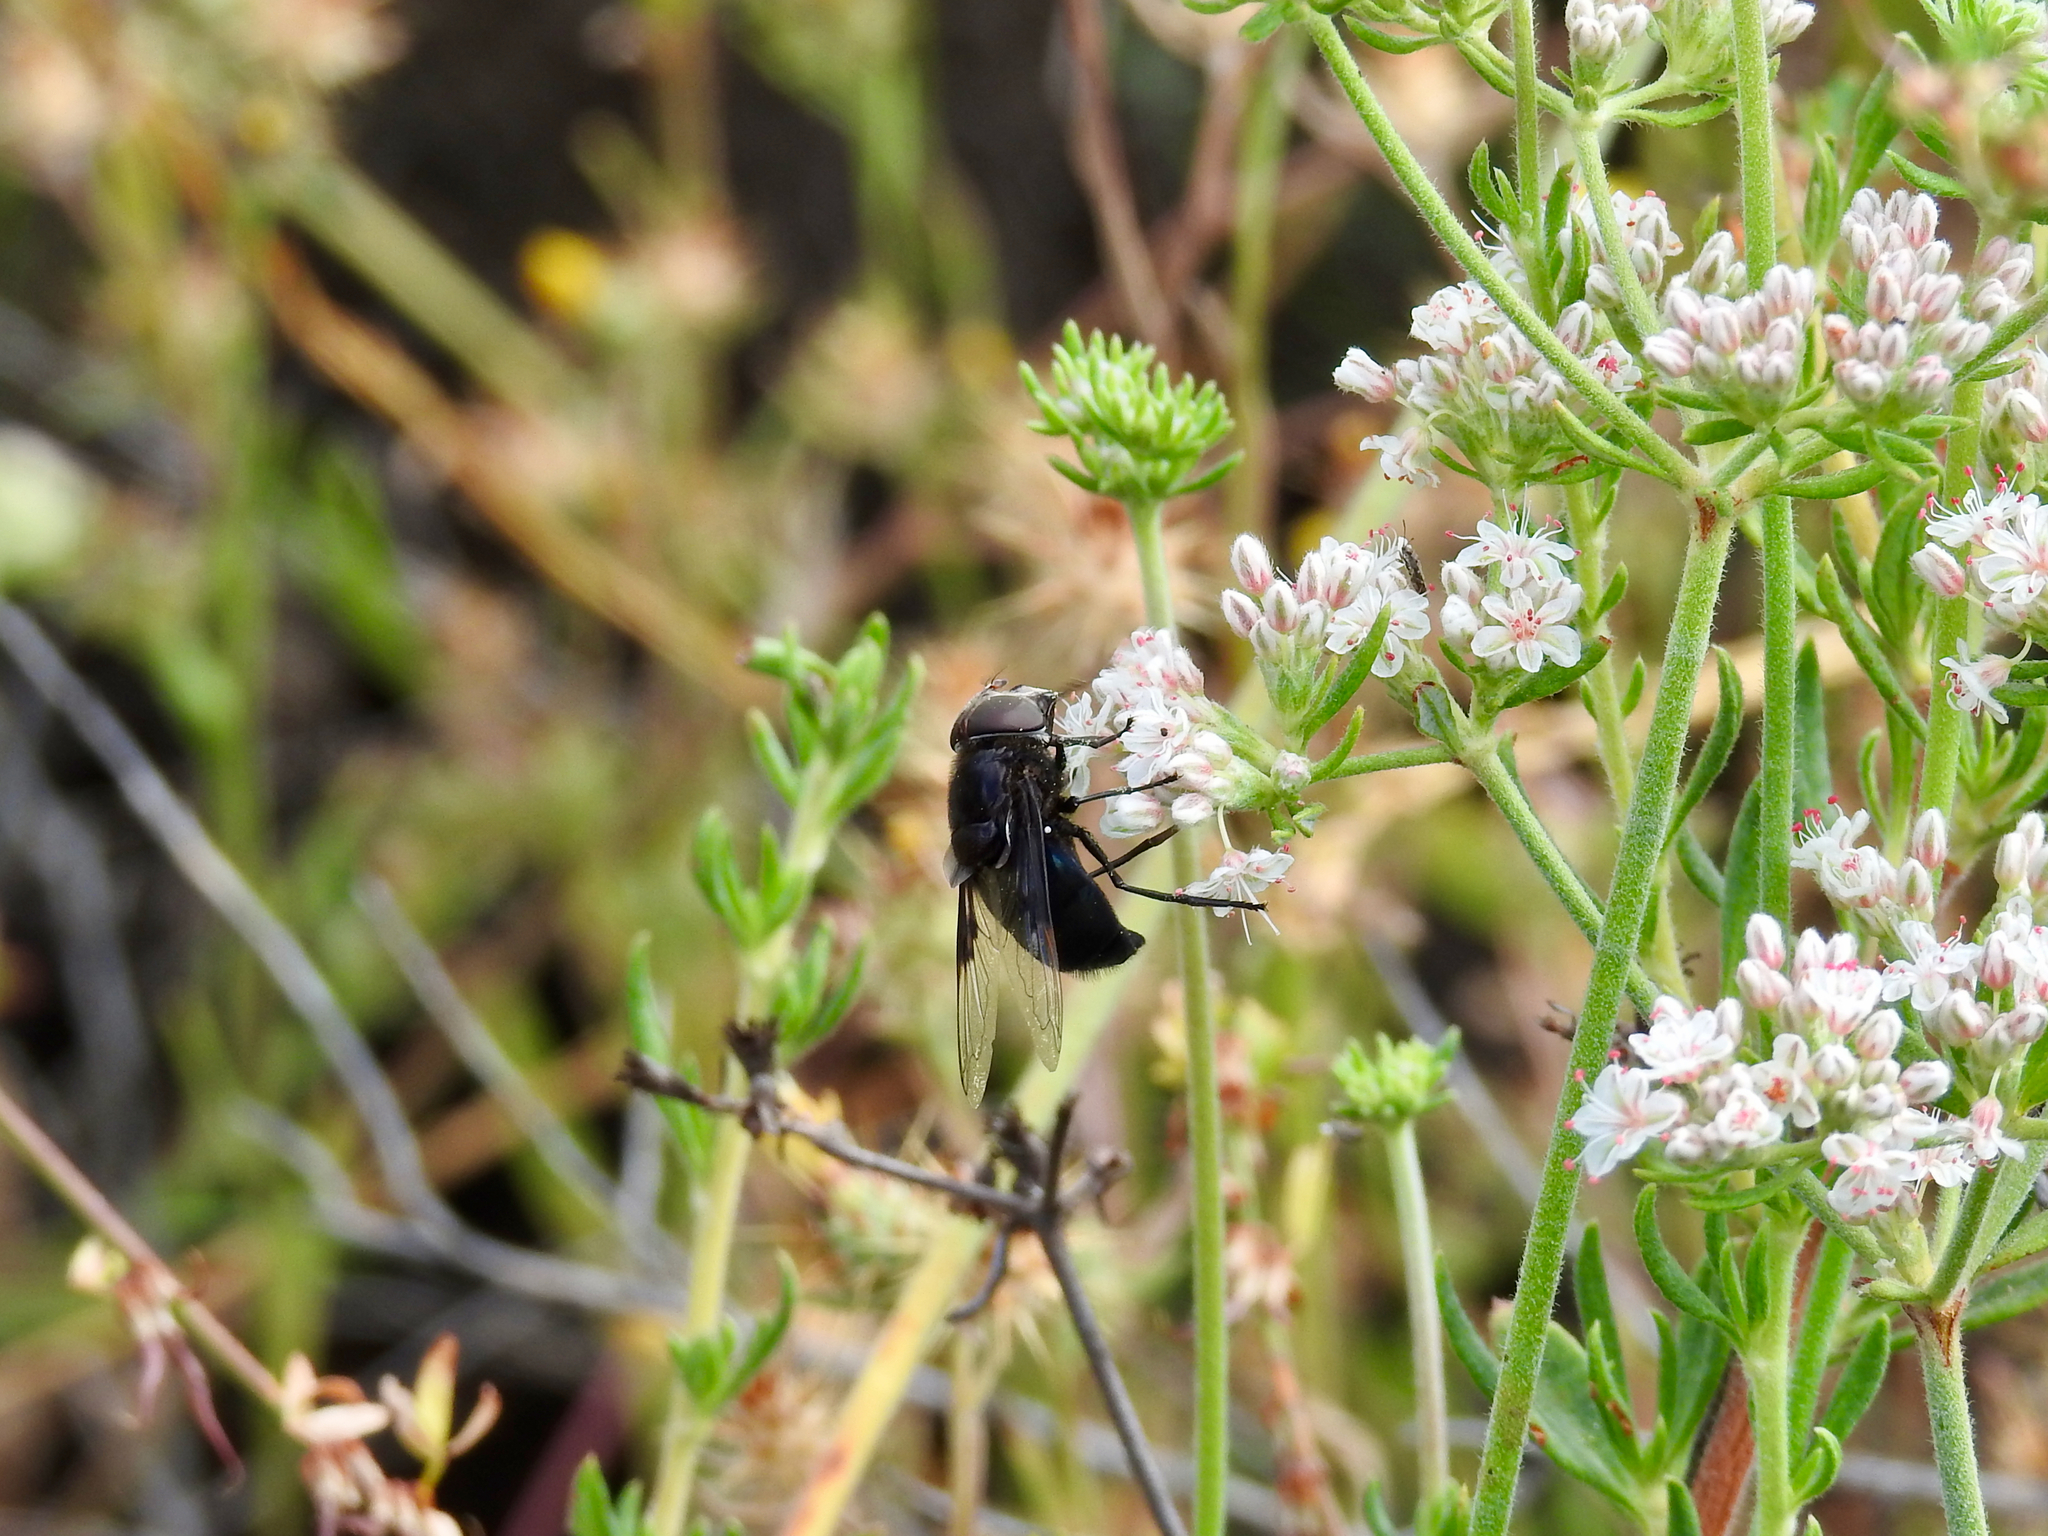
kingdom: Animalia
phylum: Arthropoda
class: Insecta
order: Diptera
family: Syrphidae
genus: Copestylum
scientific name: Copestylum mexicanum
